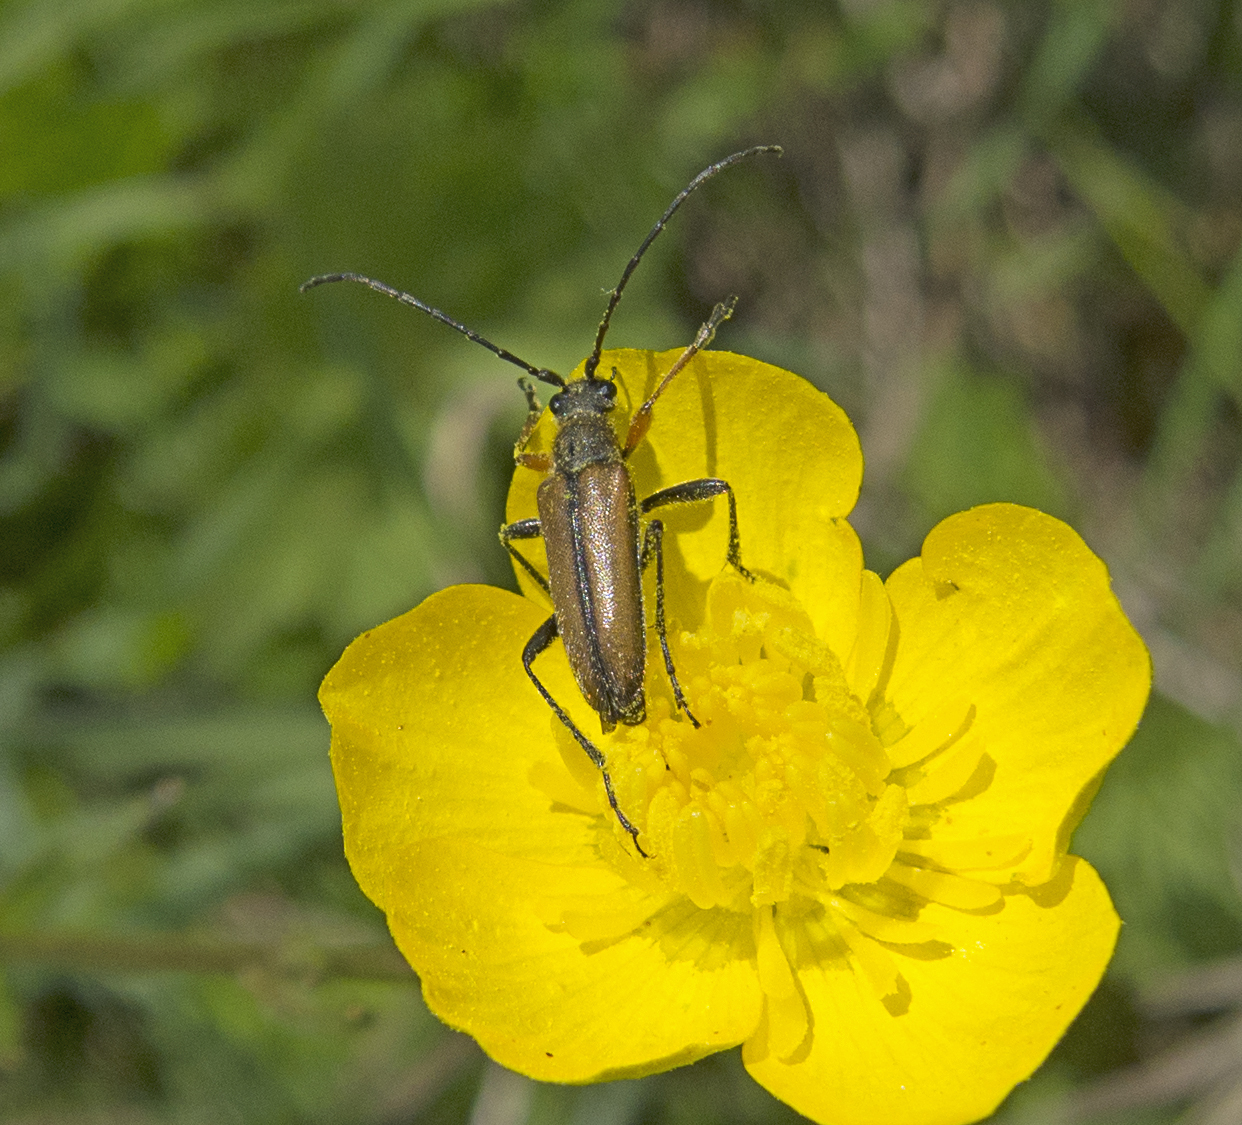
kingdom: Animalia
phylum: Arthropoda
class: Insecta
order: Coleoptera
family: Cerambycidae
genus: Cortodera
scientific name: Cortodera flavimana
